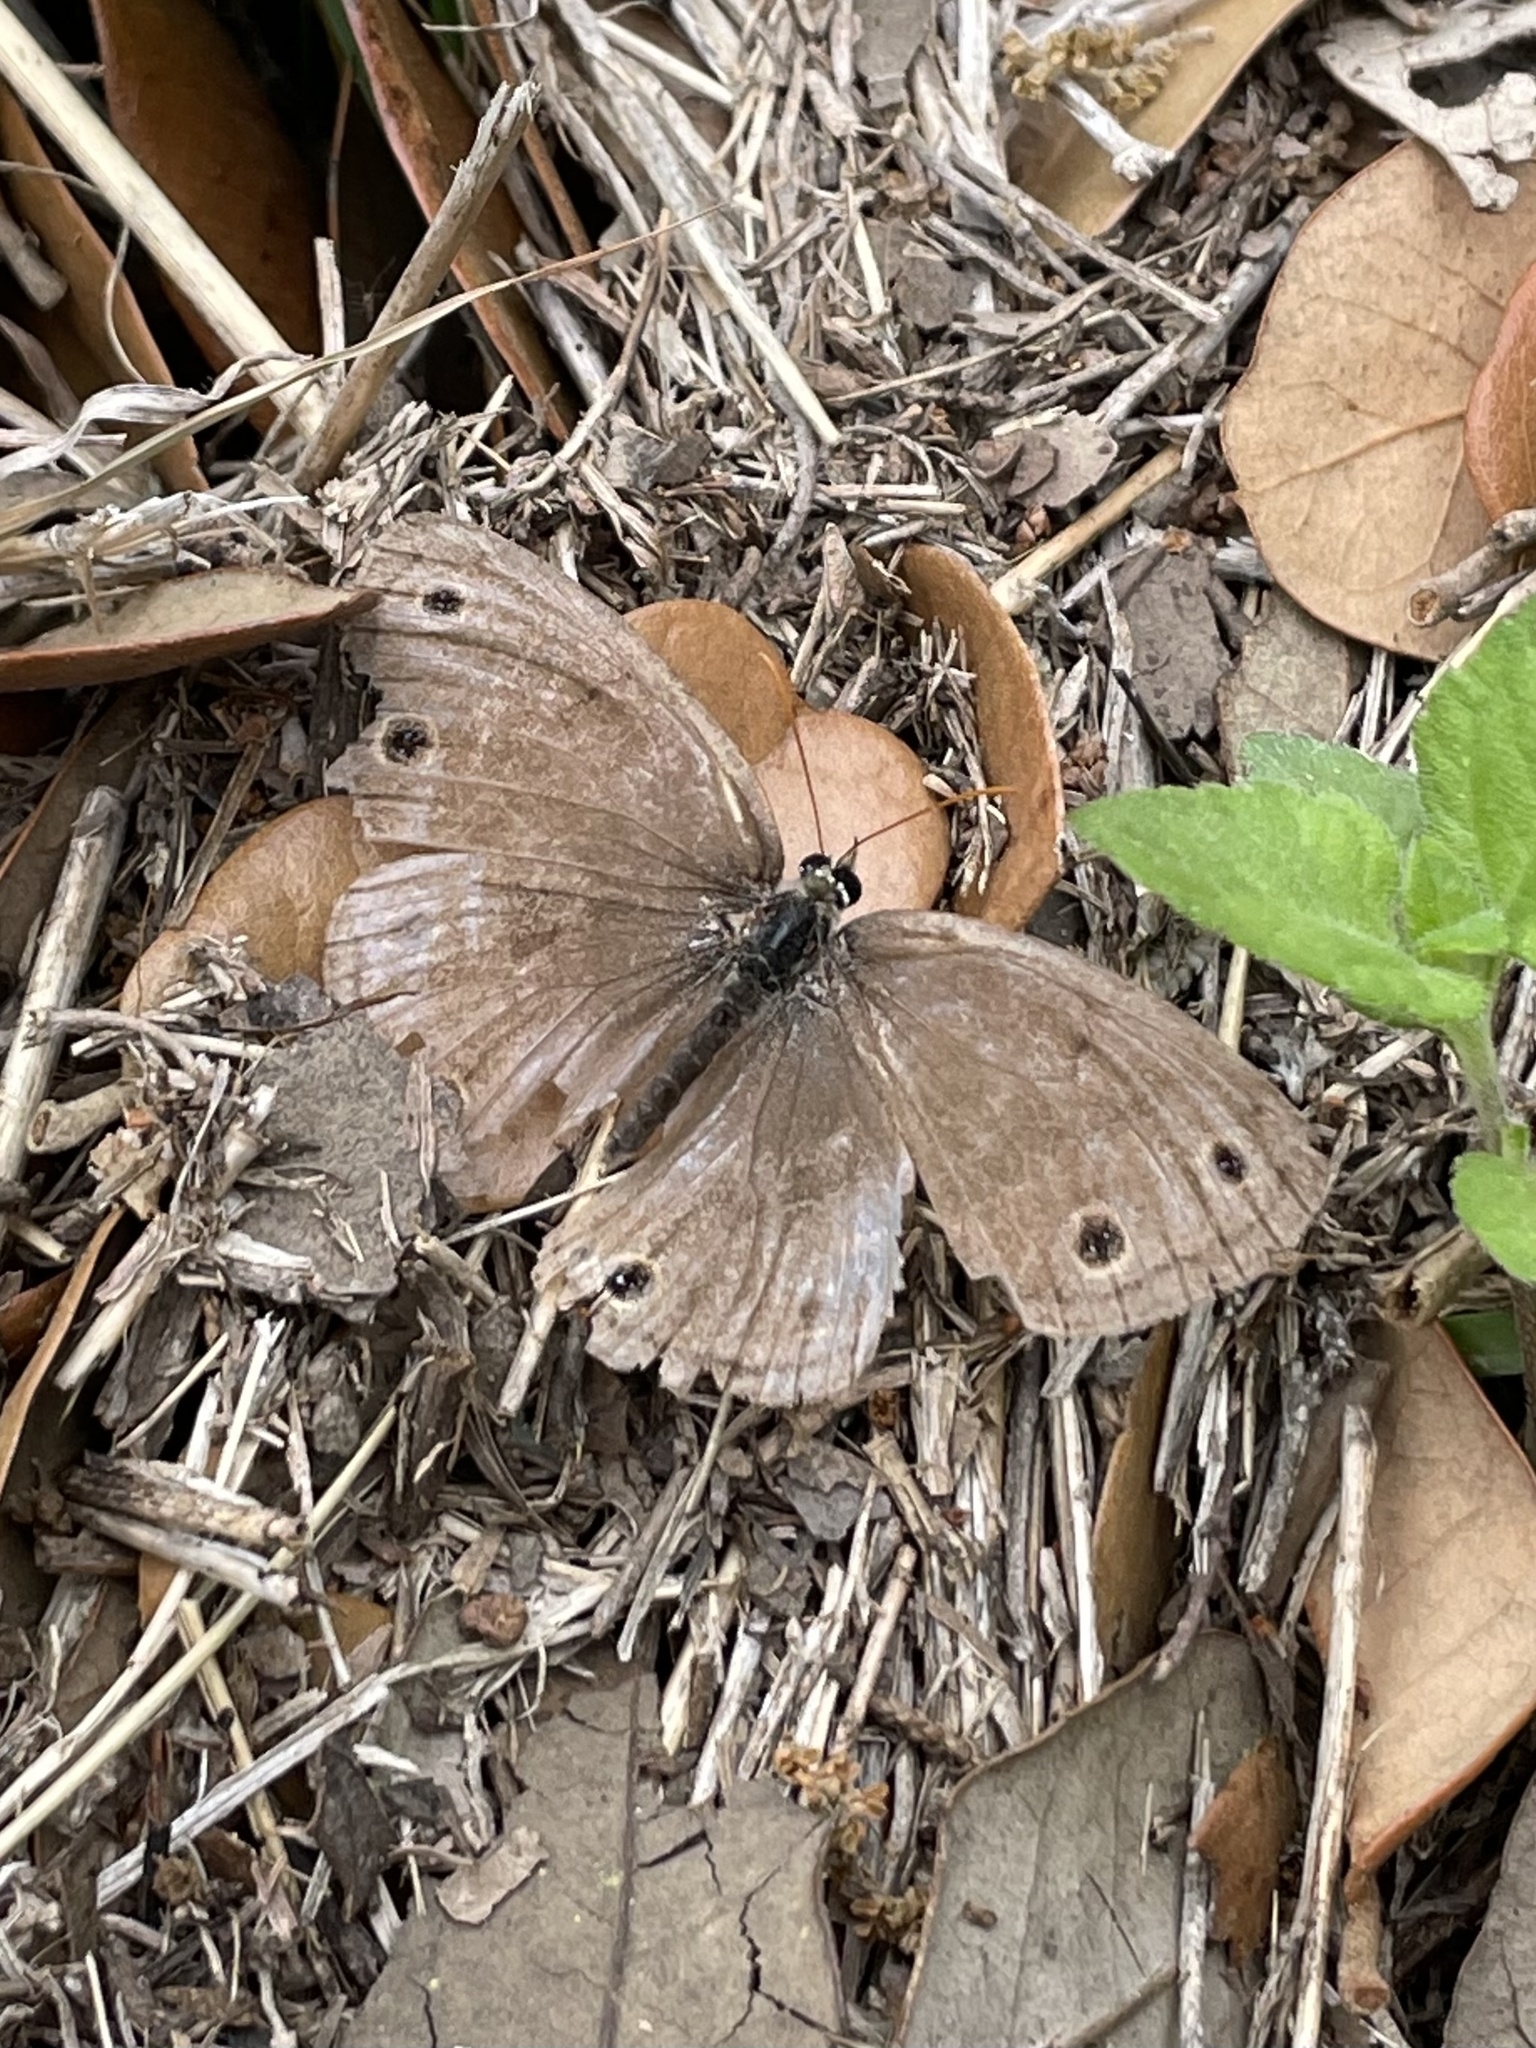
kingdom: Animalia
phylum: Arthropoda
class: Insecta
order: Lepidoptera
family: Nymphalidae
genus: Euptychia
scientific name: Euptychia cymela
